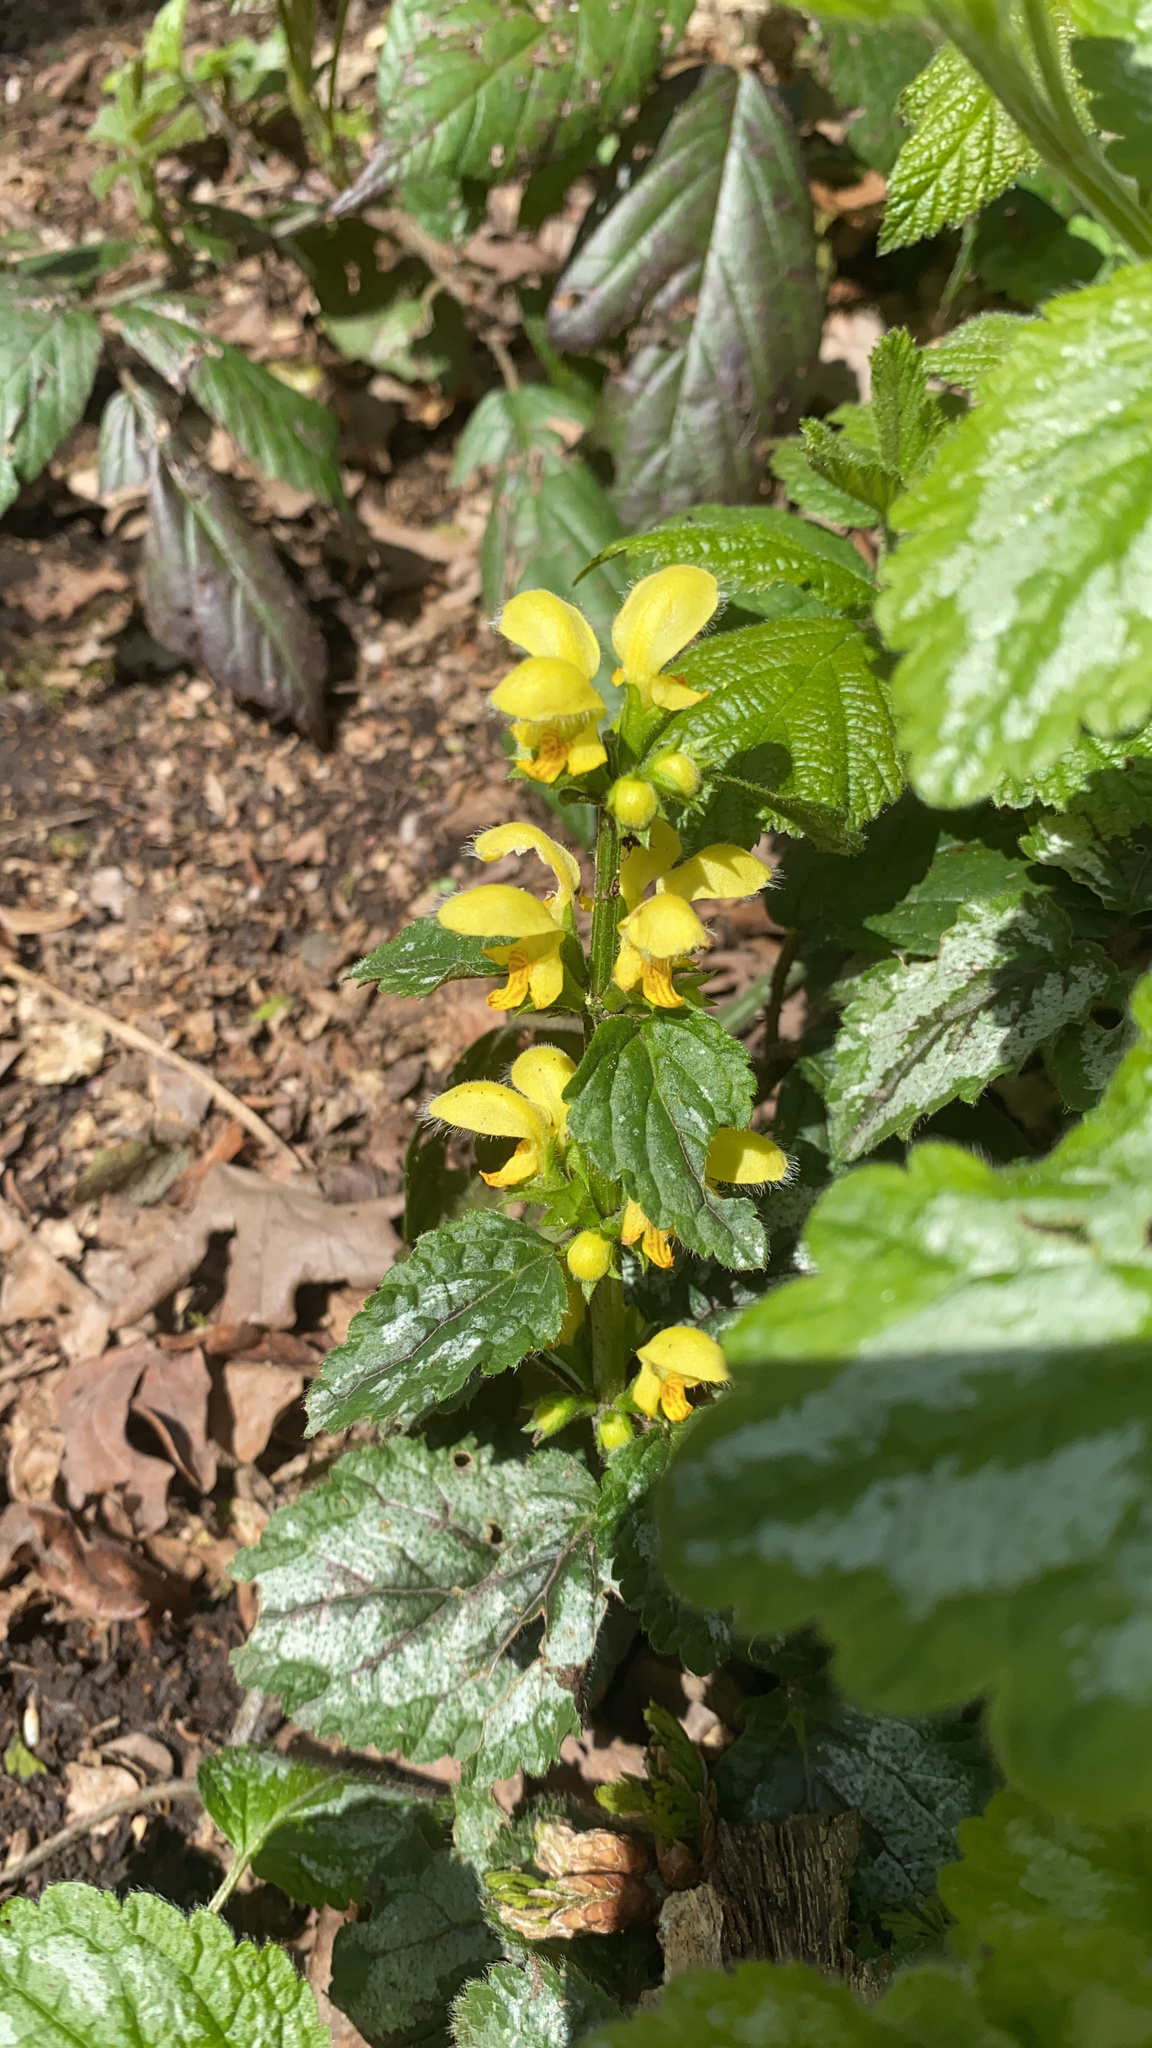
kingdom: Plantae
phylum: Tracheophyta
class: Magnoliopsida
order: Lamiales
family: Lamiaceae
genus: Lamium
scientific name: Lamium galeobdolon
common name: Yellow archangel
